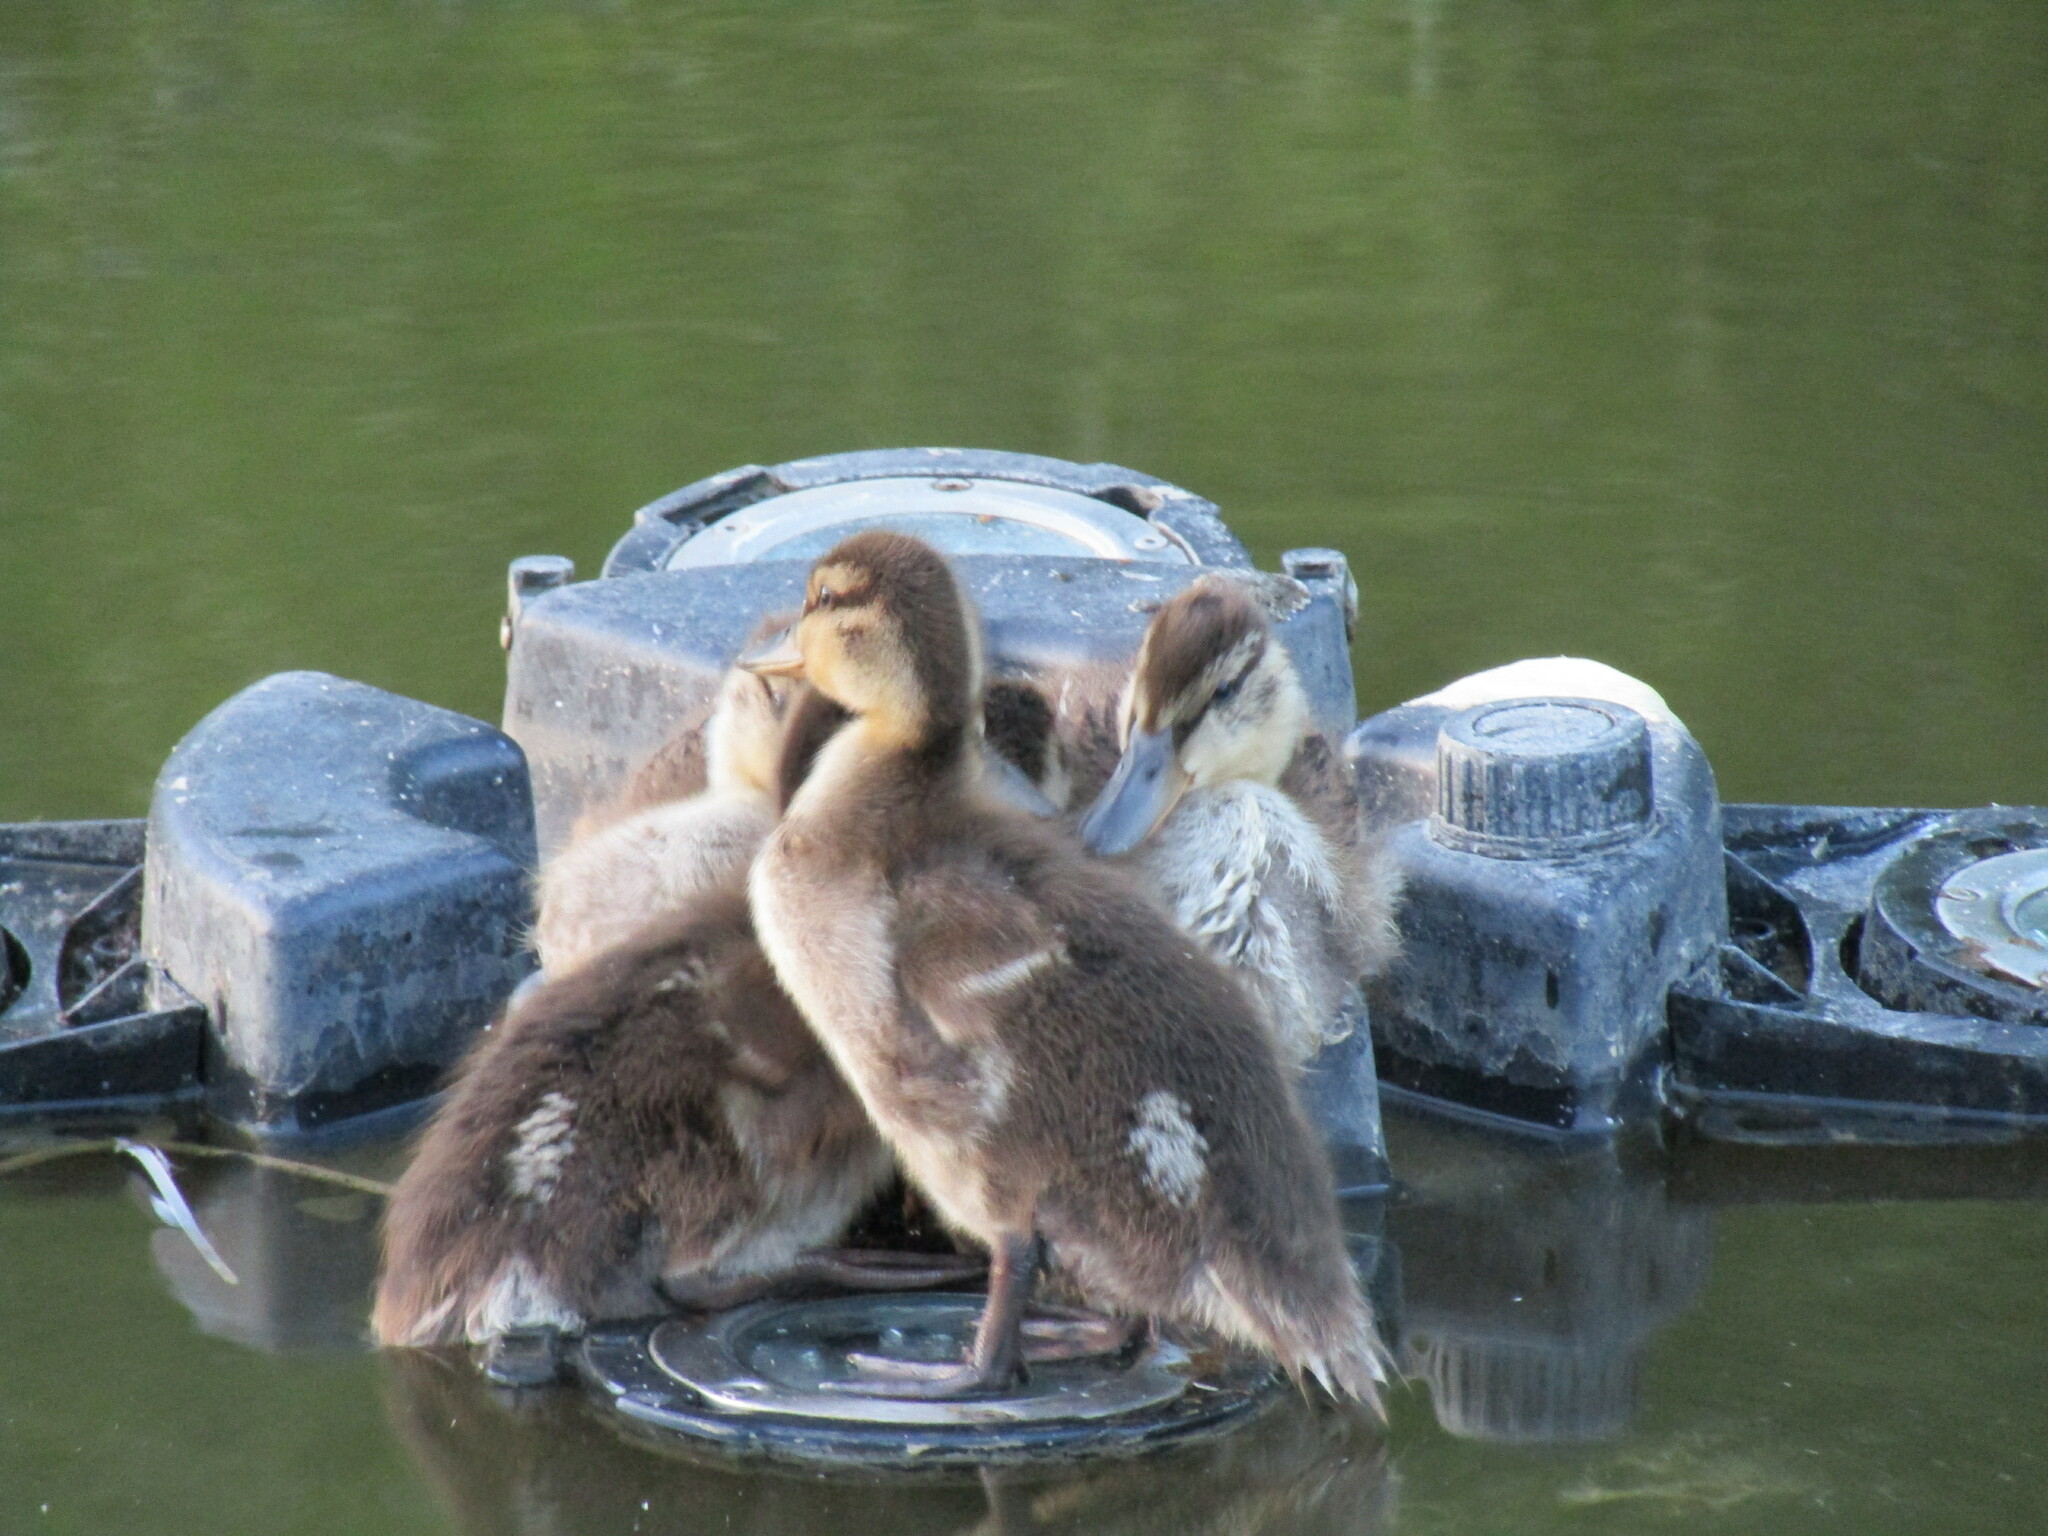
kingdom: Animalia
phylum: Chordata
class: Aves
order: Anseriformes
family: Anatidae
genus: Anas
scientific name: Anas platyrhynchos
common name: Mallard
